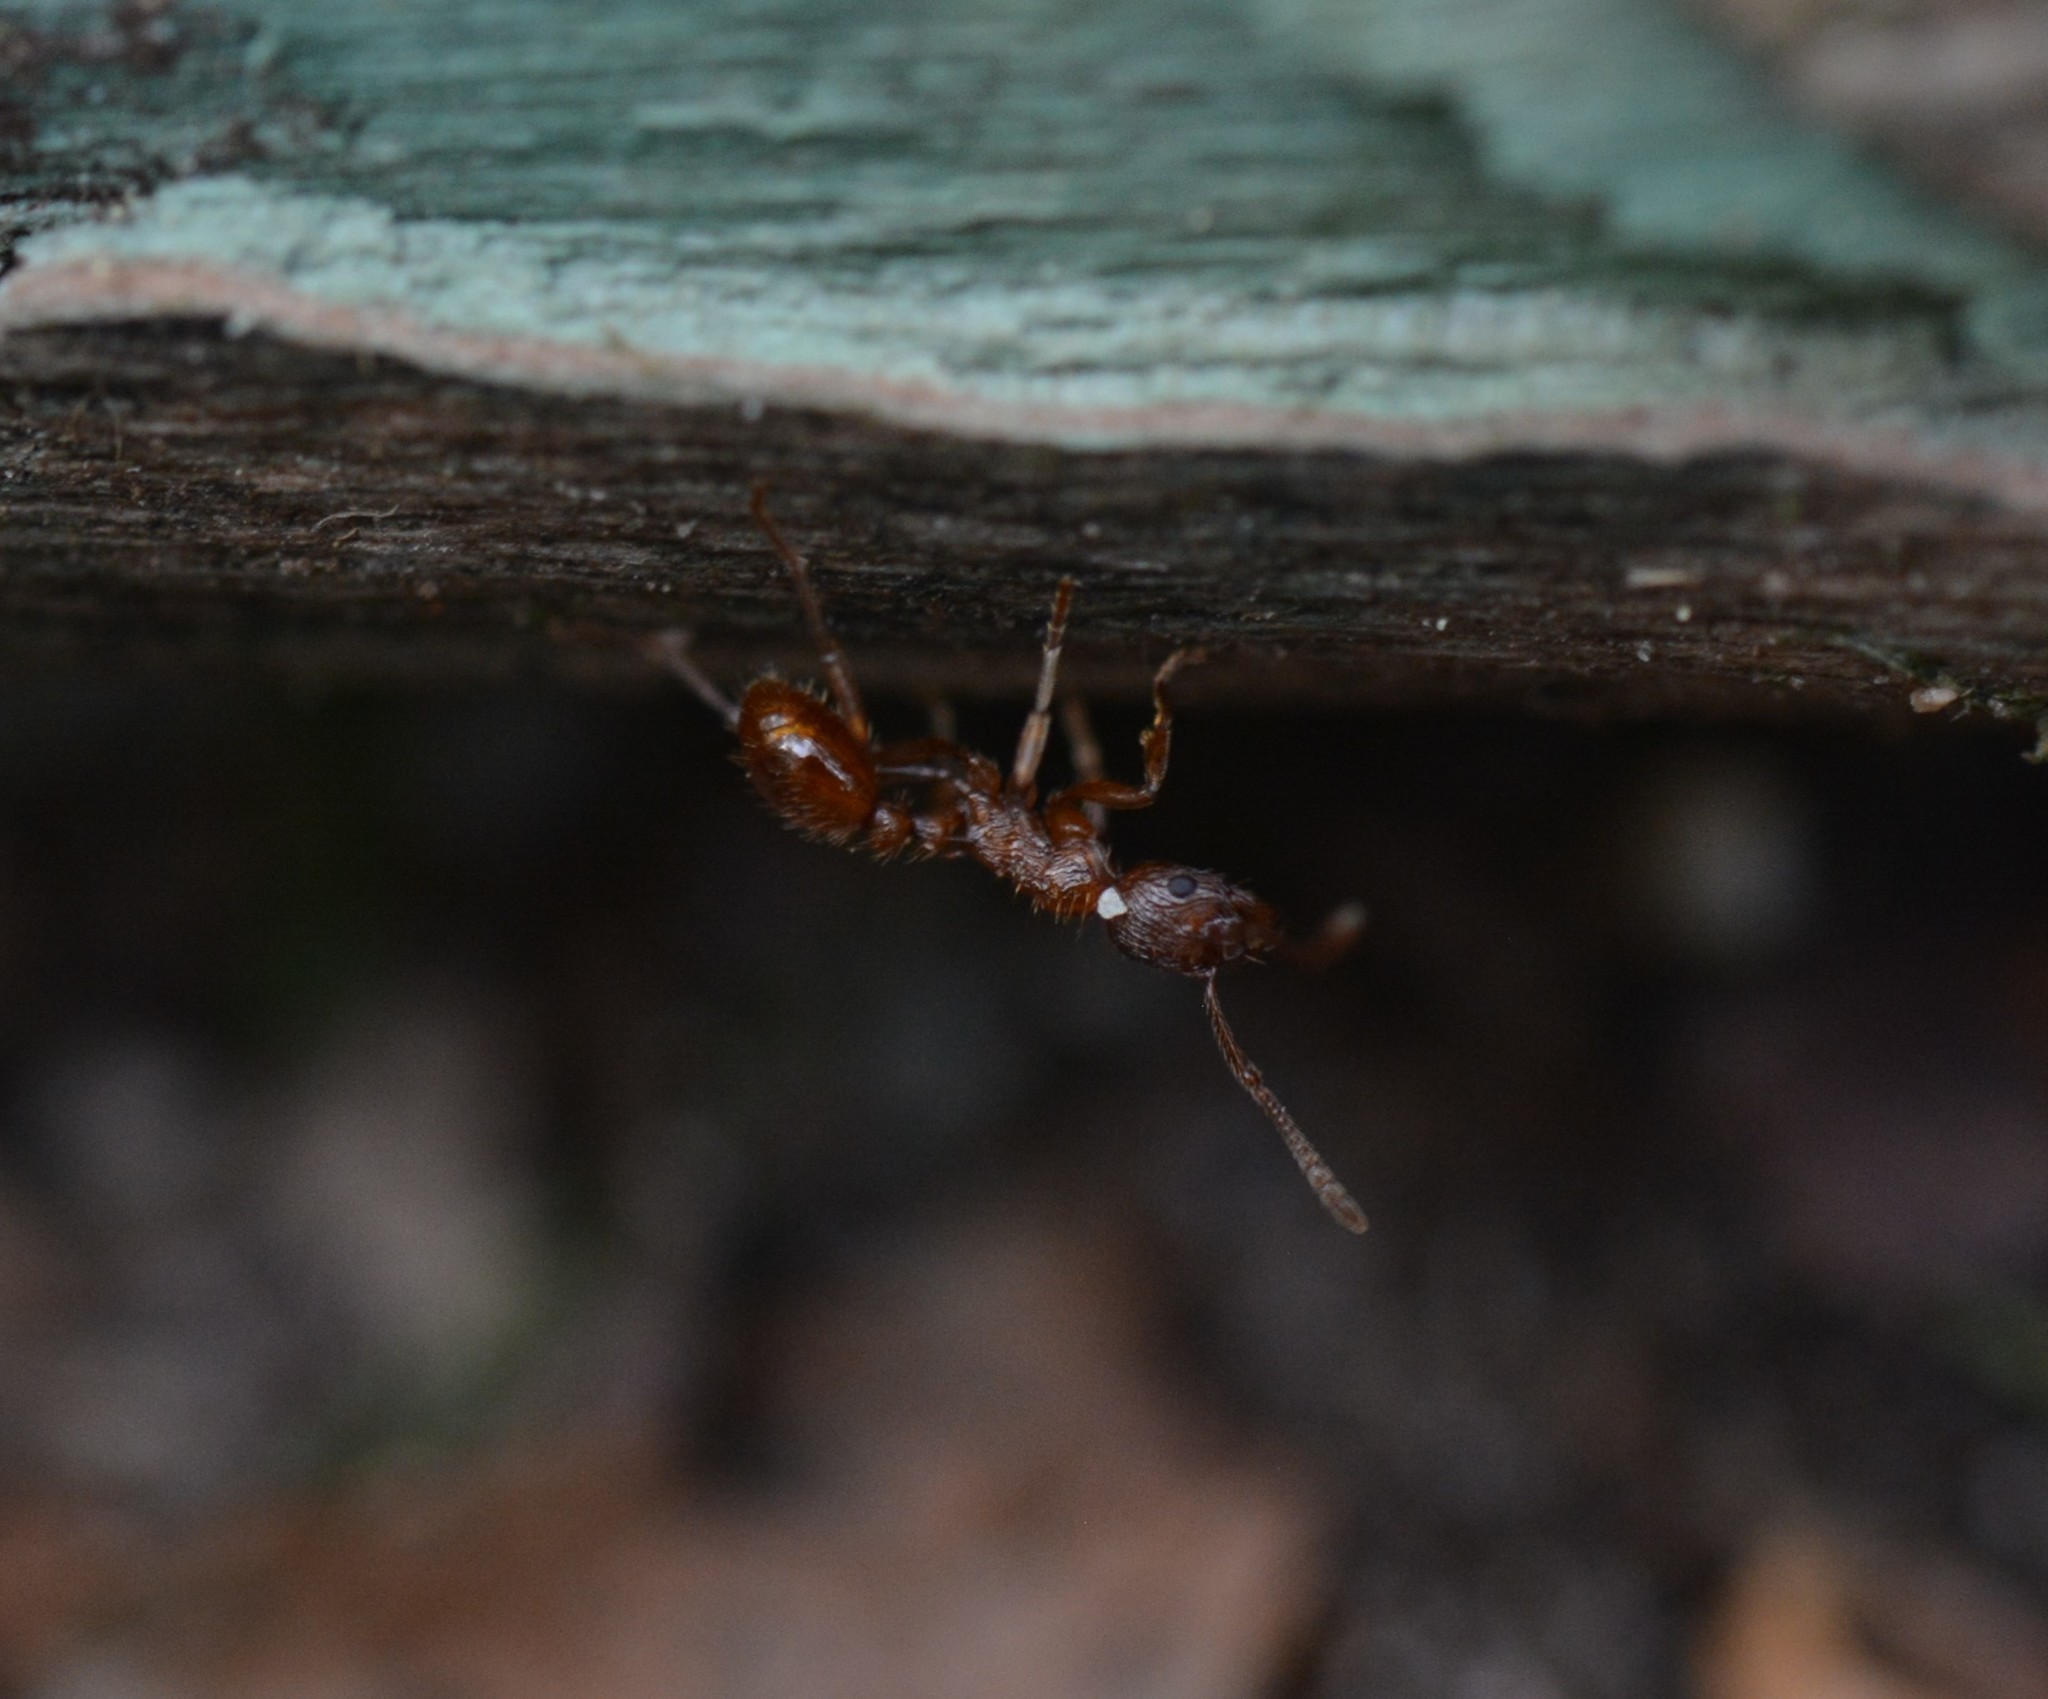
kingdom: Animalia
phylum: Arthropoda
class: Insecta
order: Hymenoptera
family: Formicidae
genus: Myrmica
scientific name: Myrmica rubra
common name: European fire ant
